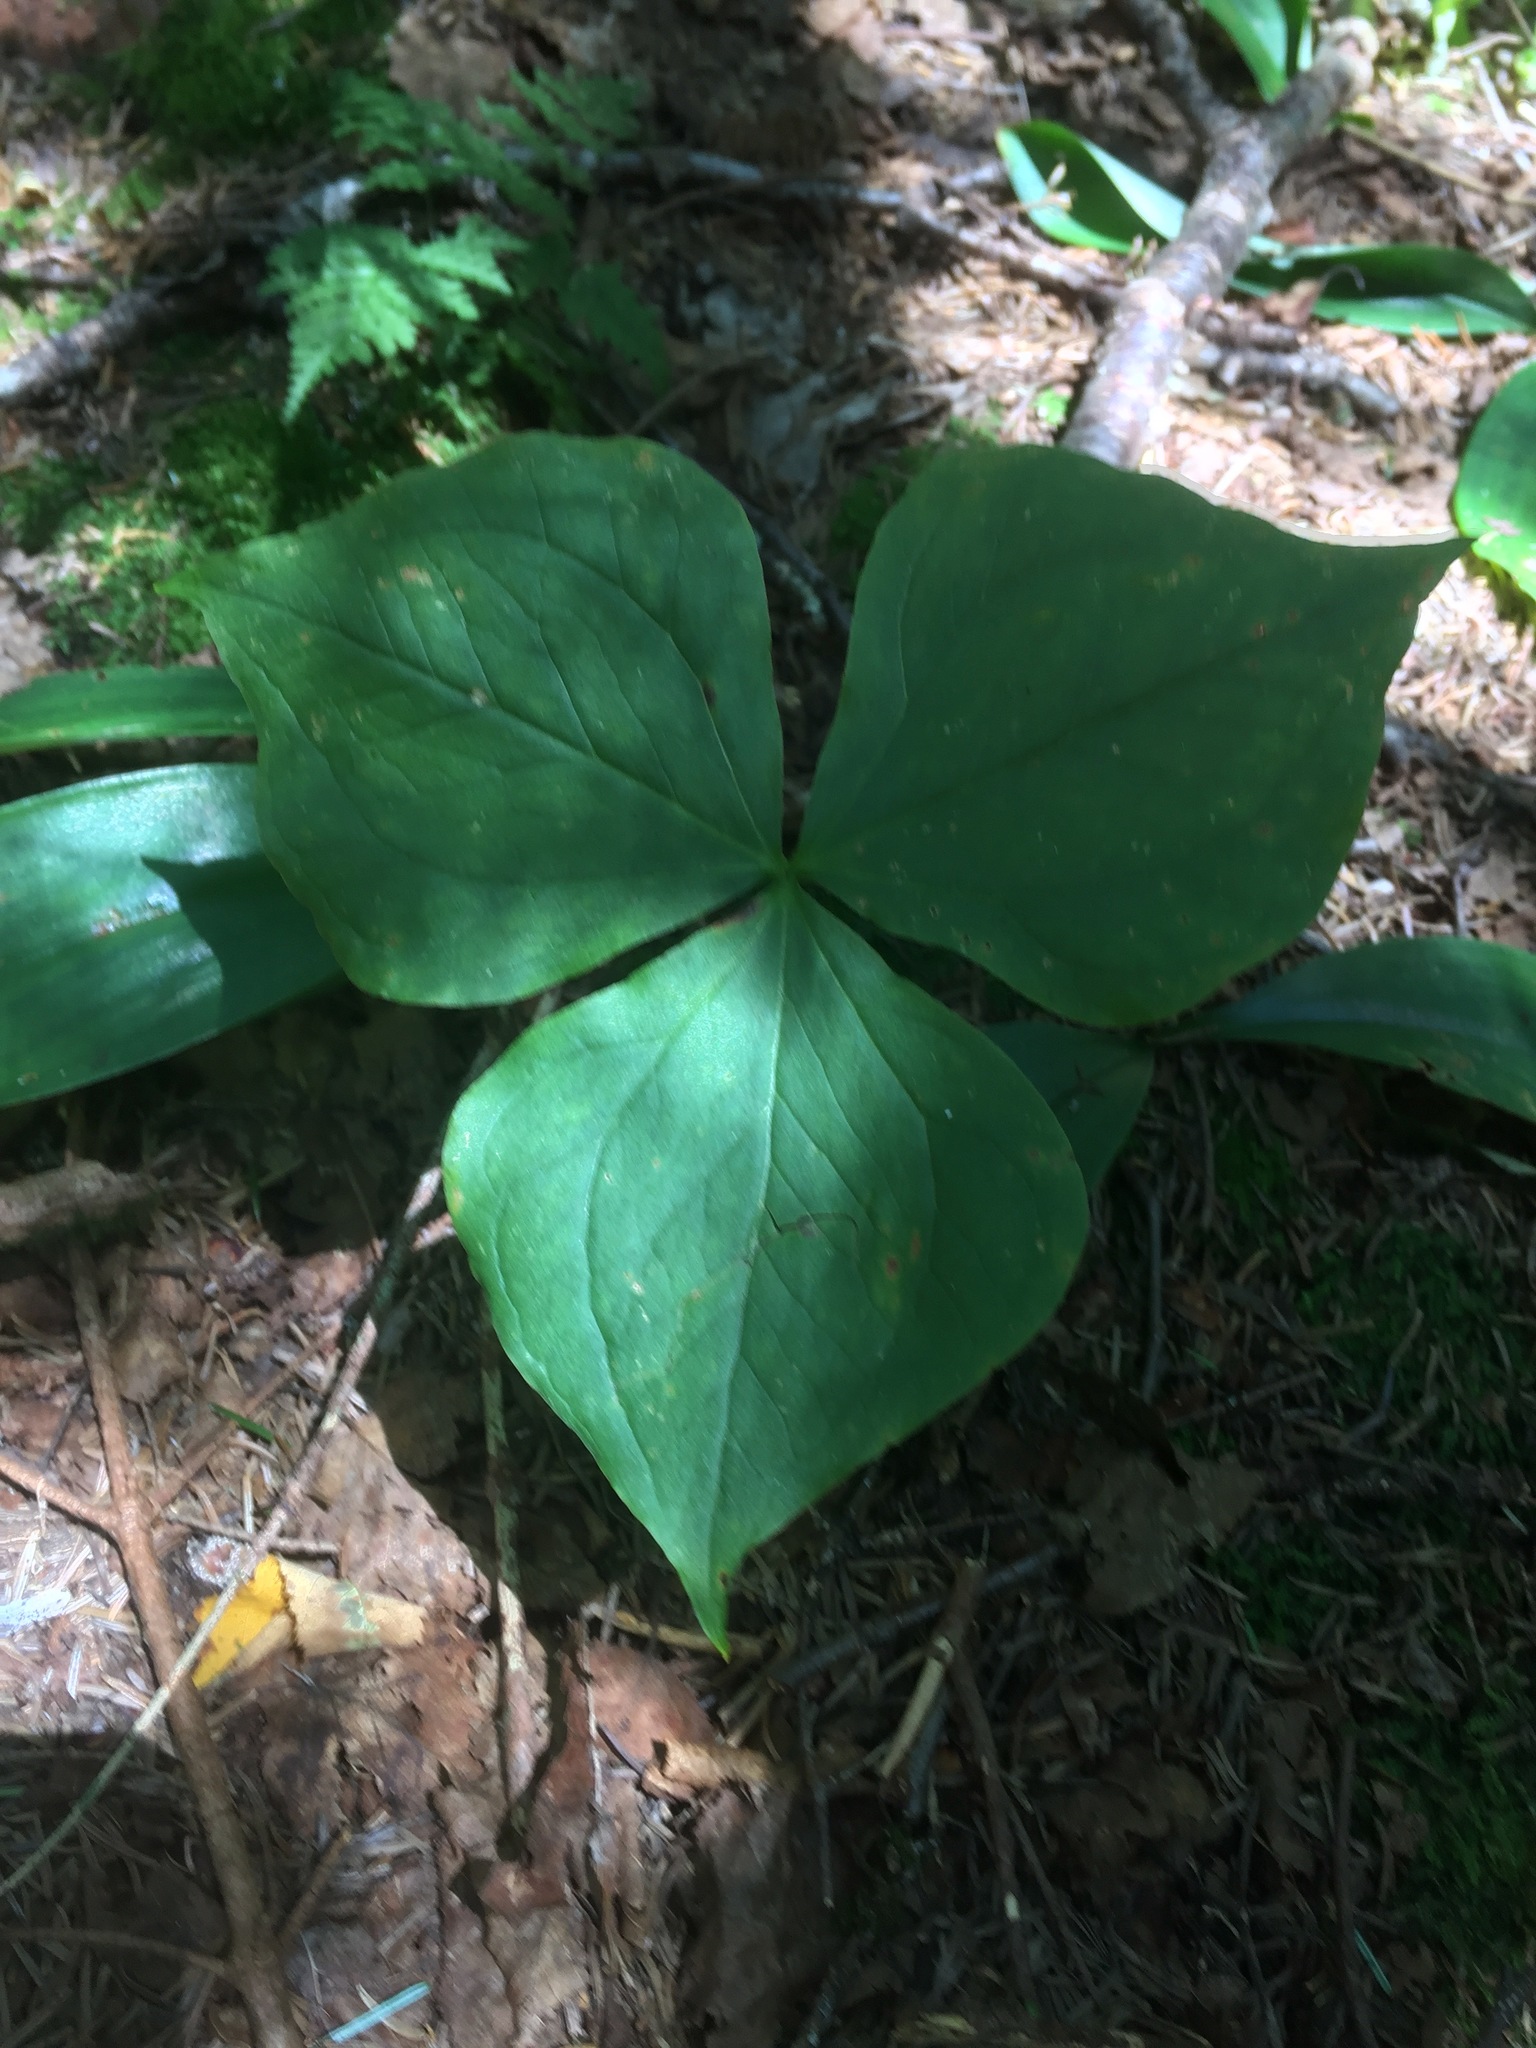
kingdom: Plantae
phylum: Tracheophyta
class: Liliopsida
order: Liliales
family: Melanthiaceae
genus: Trillium
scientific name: Trillium erectum
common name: Purple trillium
